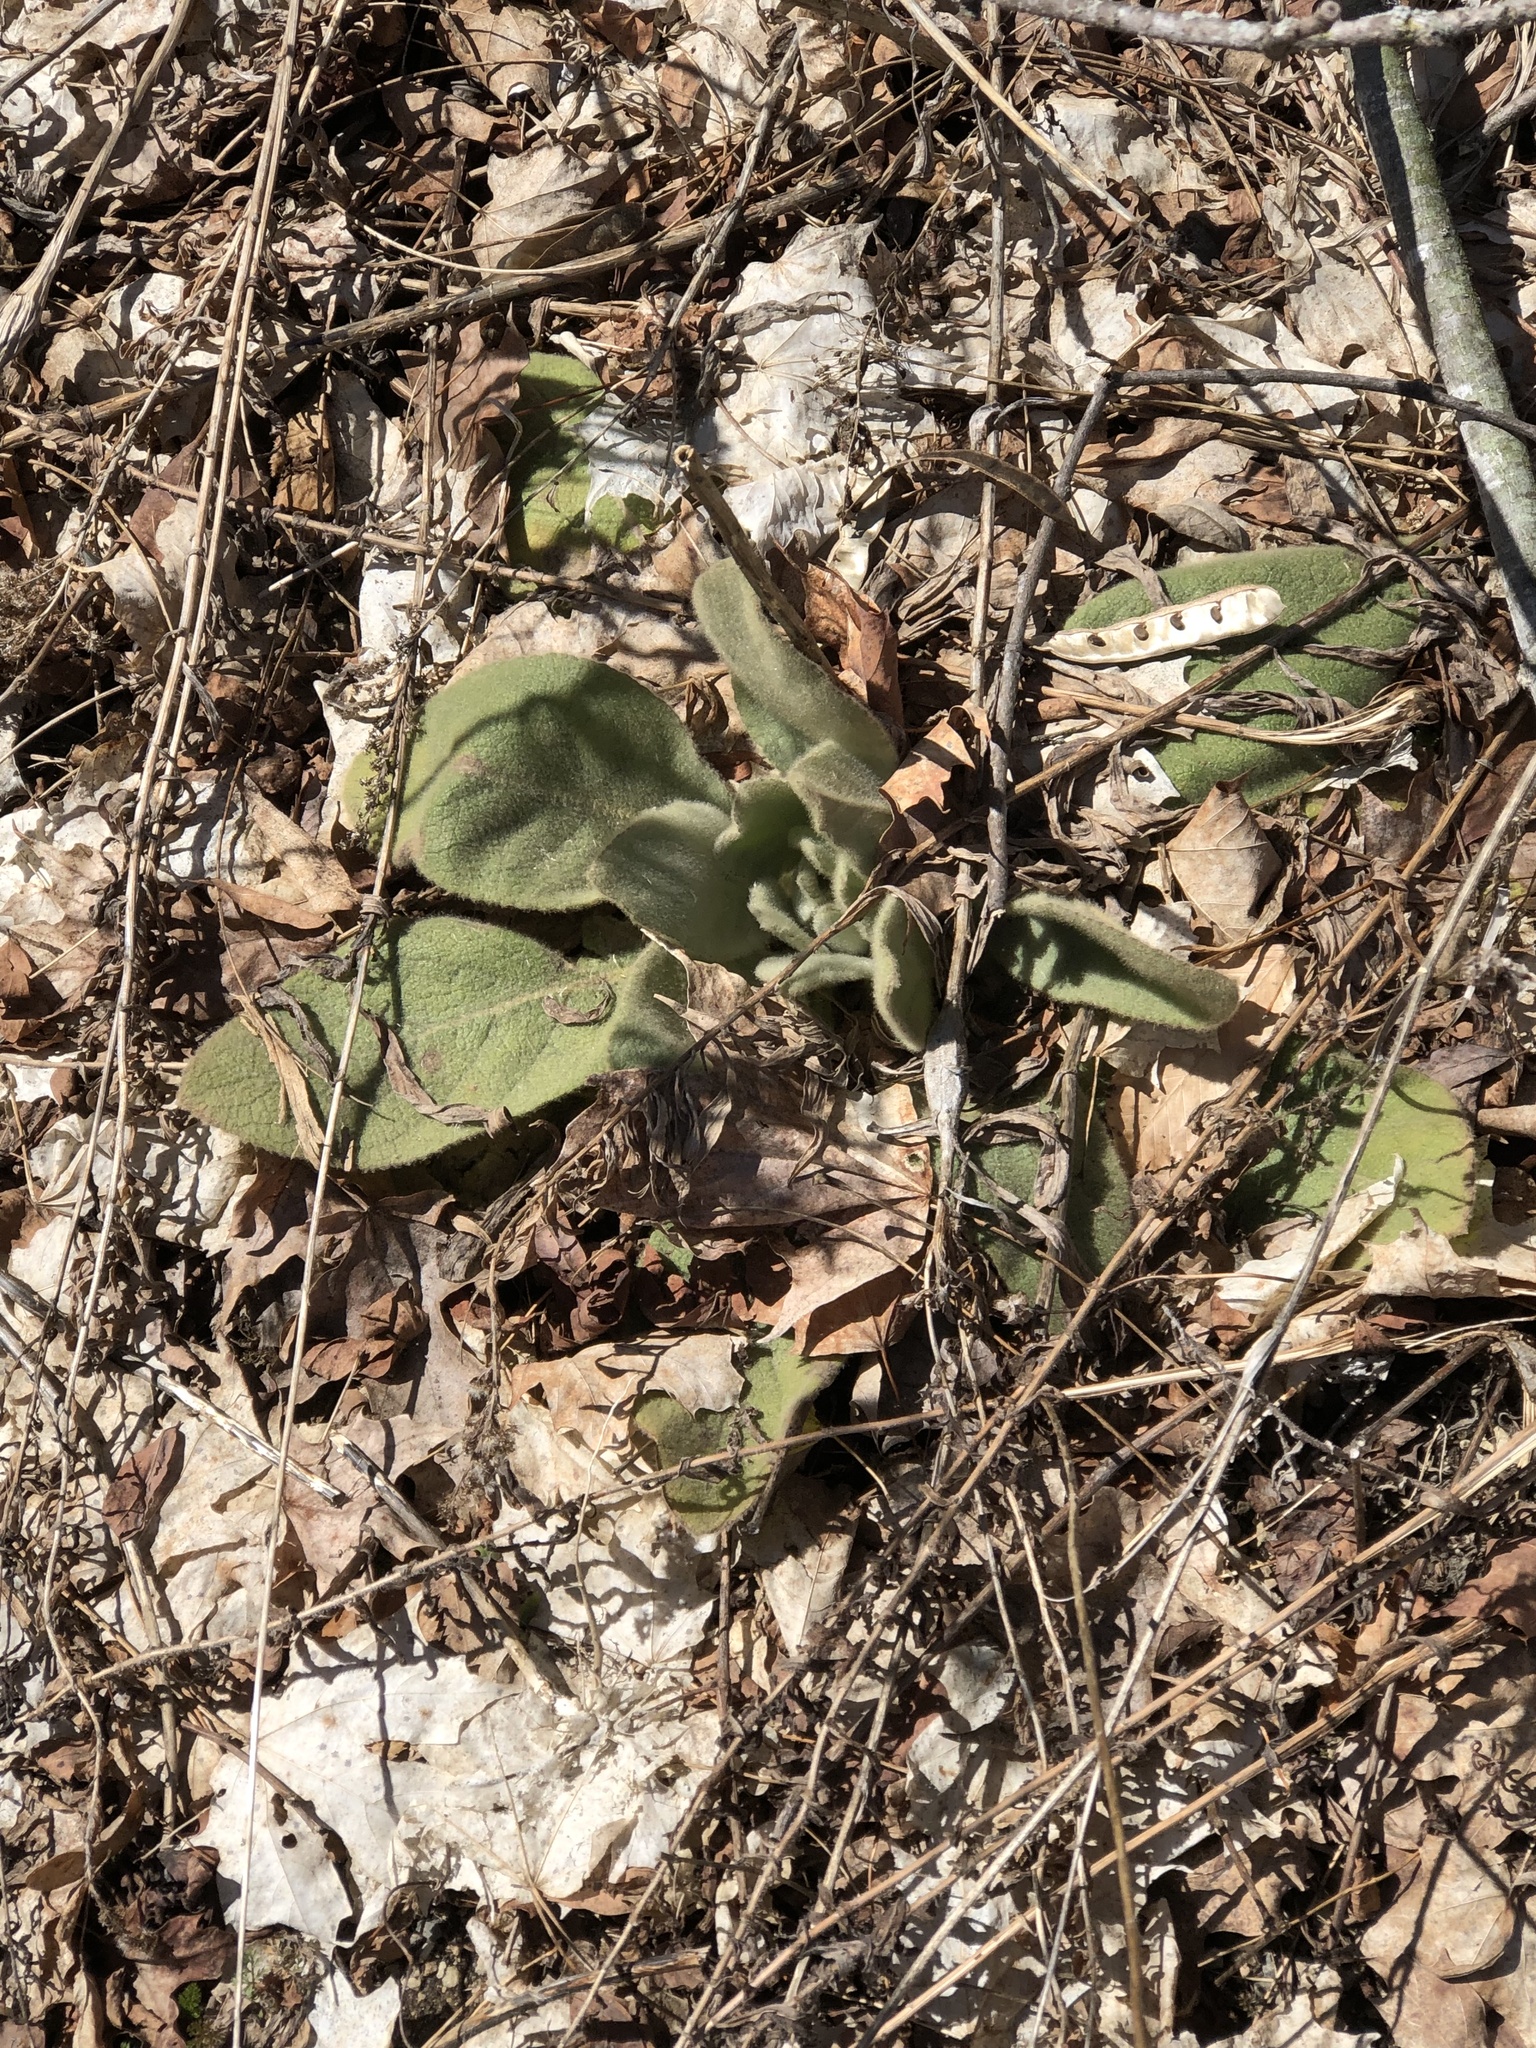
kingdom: Plantae
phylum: Tracheophyta
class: Magnoliopsida
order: Lamiales
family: Scrophulariaceae
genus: Verbascum
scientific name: Verbascum thapsus
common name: Common mullein
